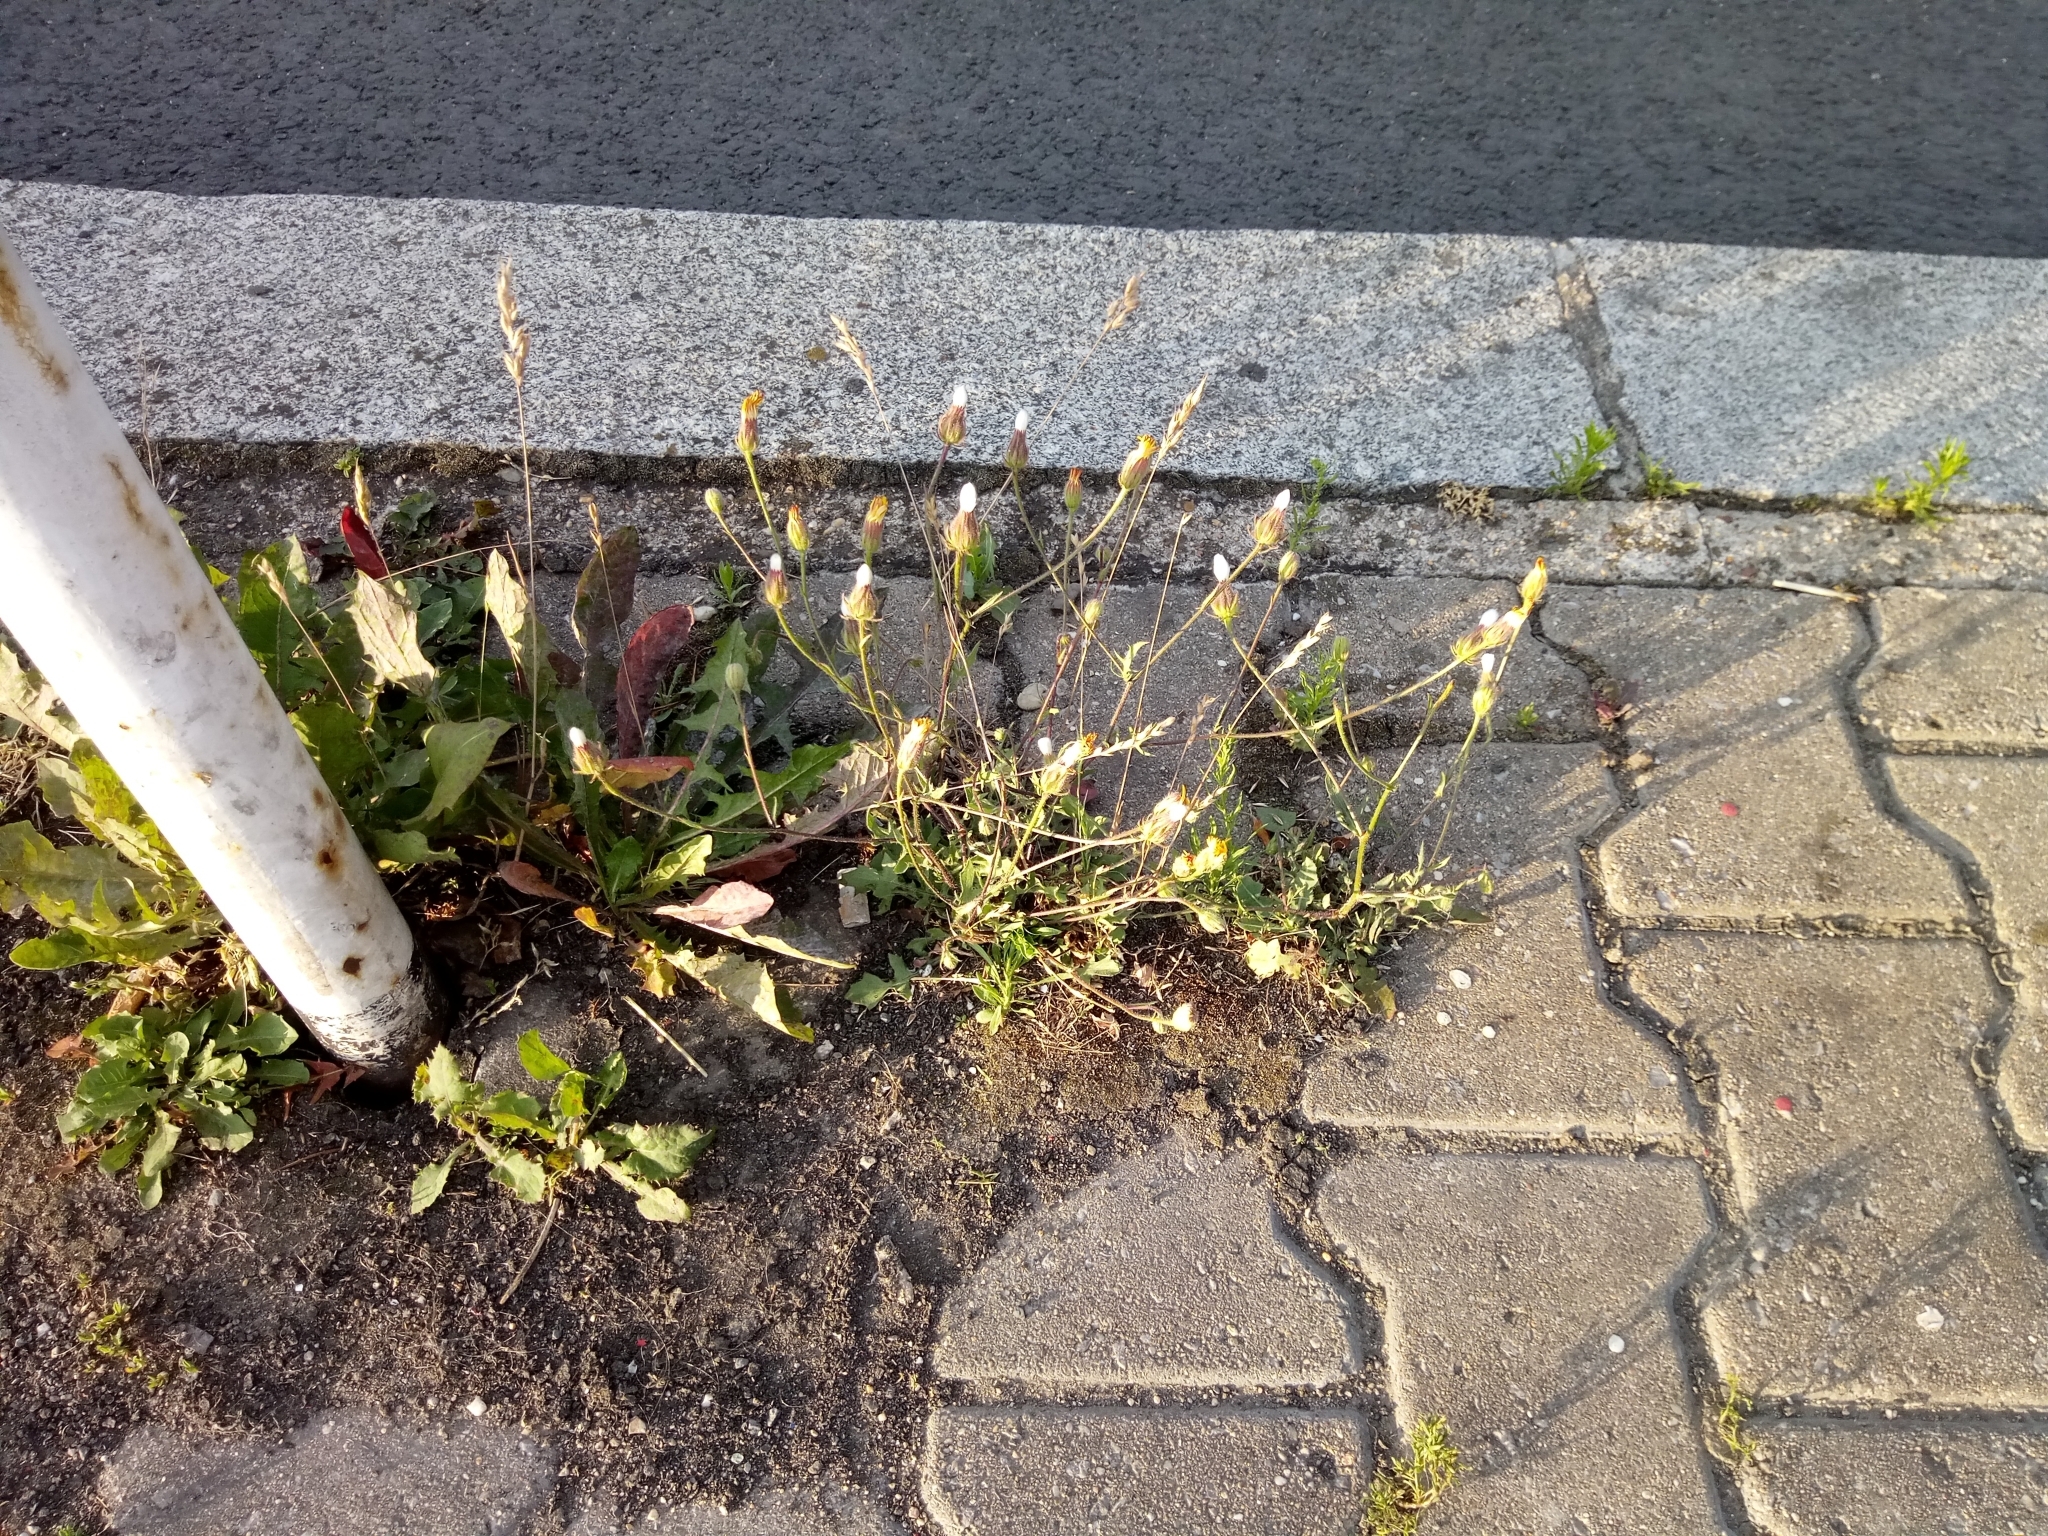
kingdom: Plantae
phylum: Tracheophyta
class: Magnoliopsida
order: Asterales
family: Asteraceae
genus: Crepis
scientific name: Crepis foetida
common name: Stinking hawk's-beard
